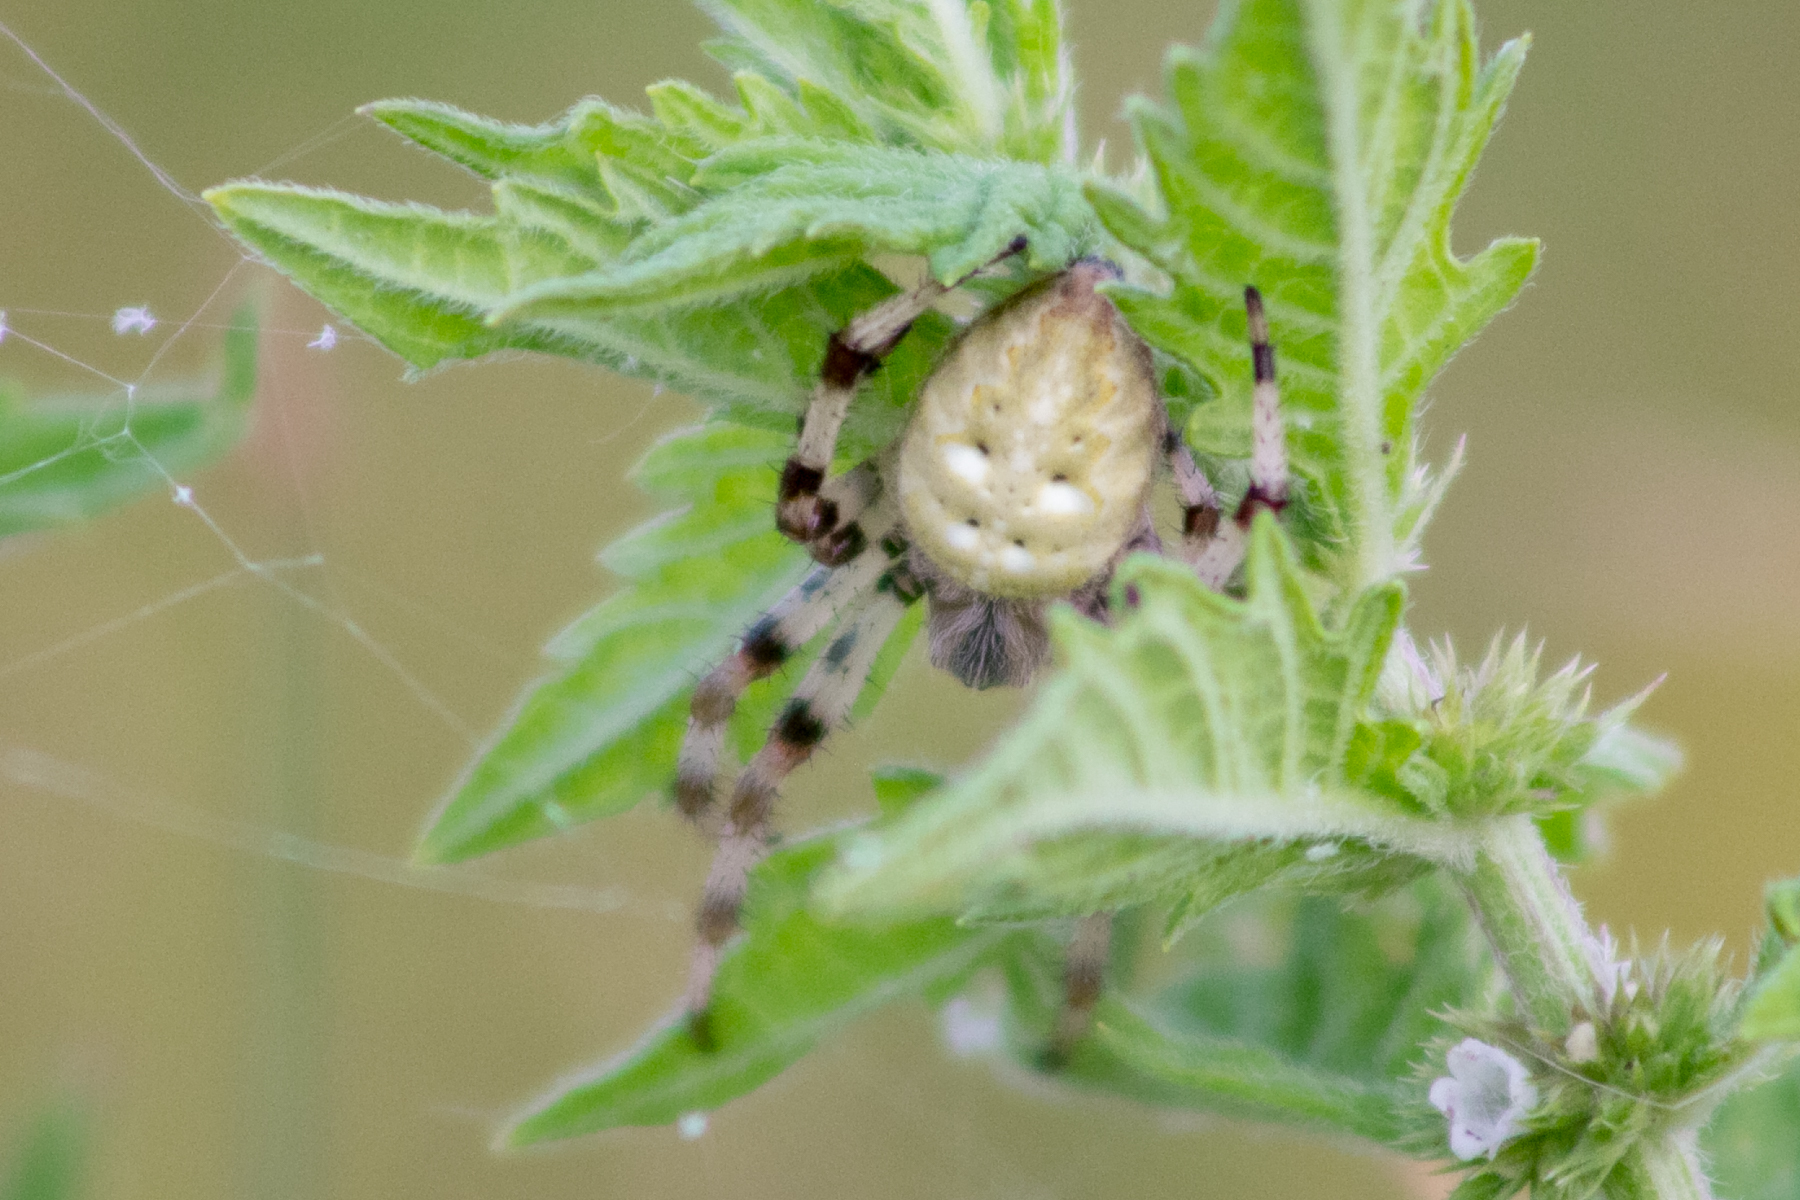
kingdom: Animalia
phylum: Arthropoda
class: Arachnida
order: Araneae
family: Araneidae
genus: Araneus
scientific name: Araneus quadratus
